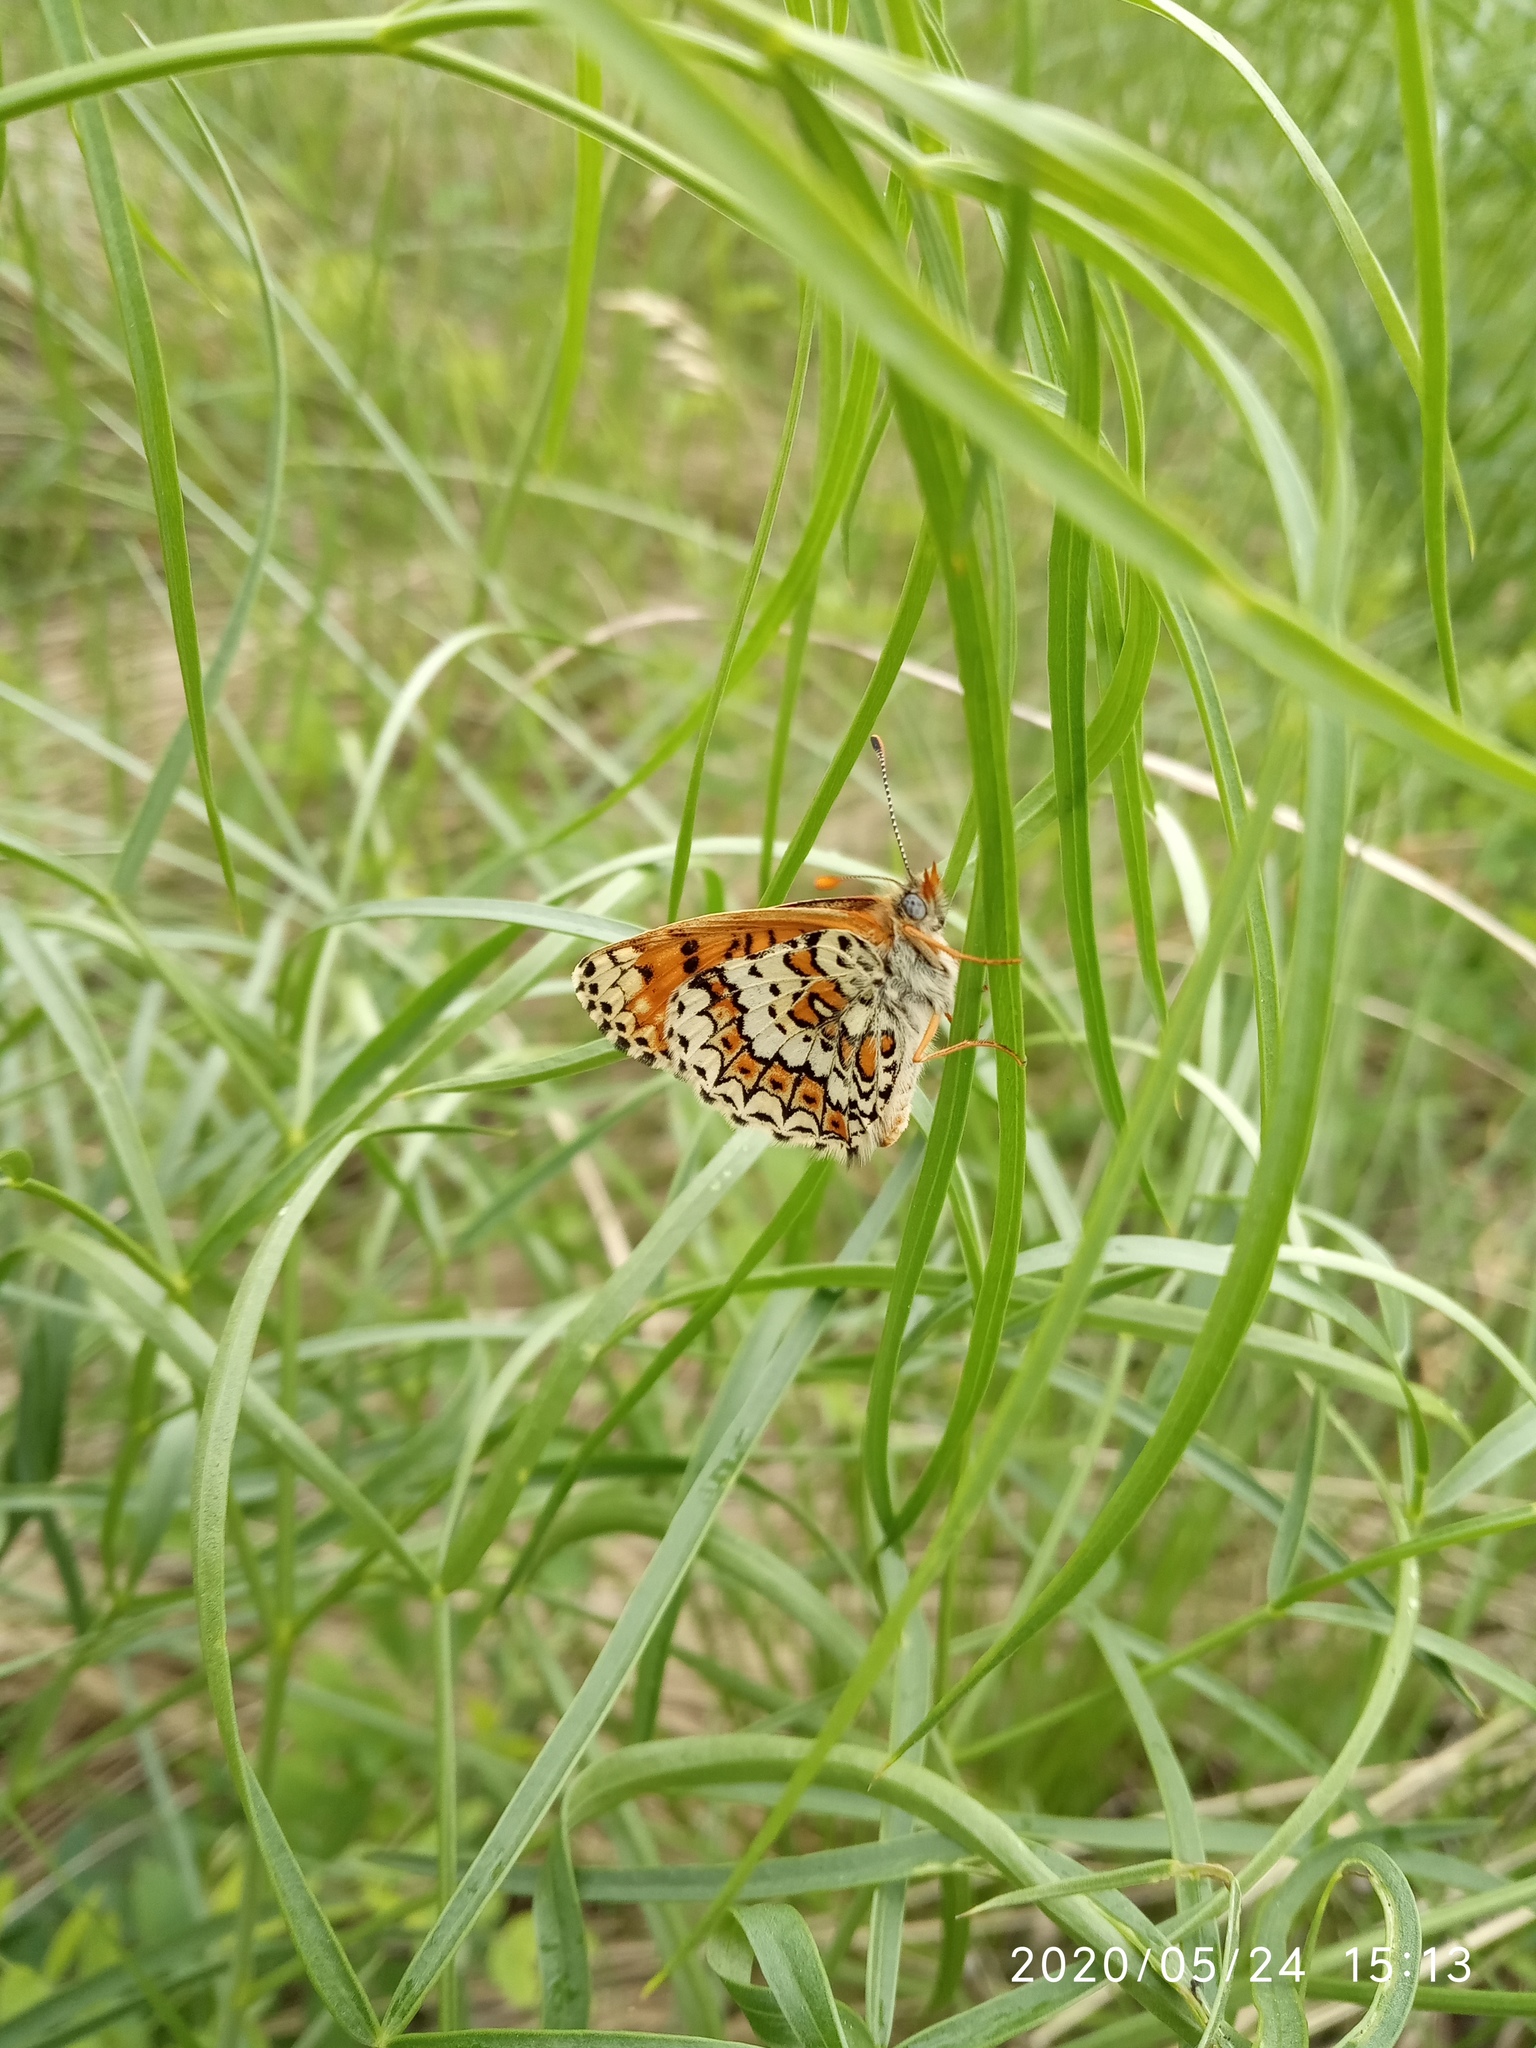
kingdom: Animalia
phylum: Arthropoda
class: Insecta
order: Lepidoptera
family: Nymphalidae
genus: Melitaea
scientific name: Melitaea cinxia
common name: Glanville fritillary
